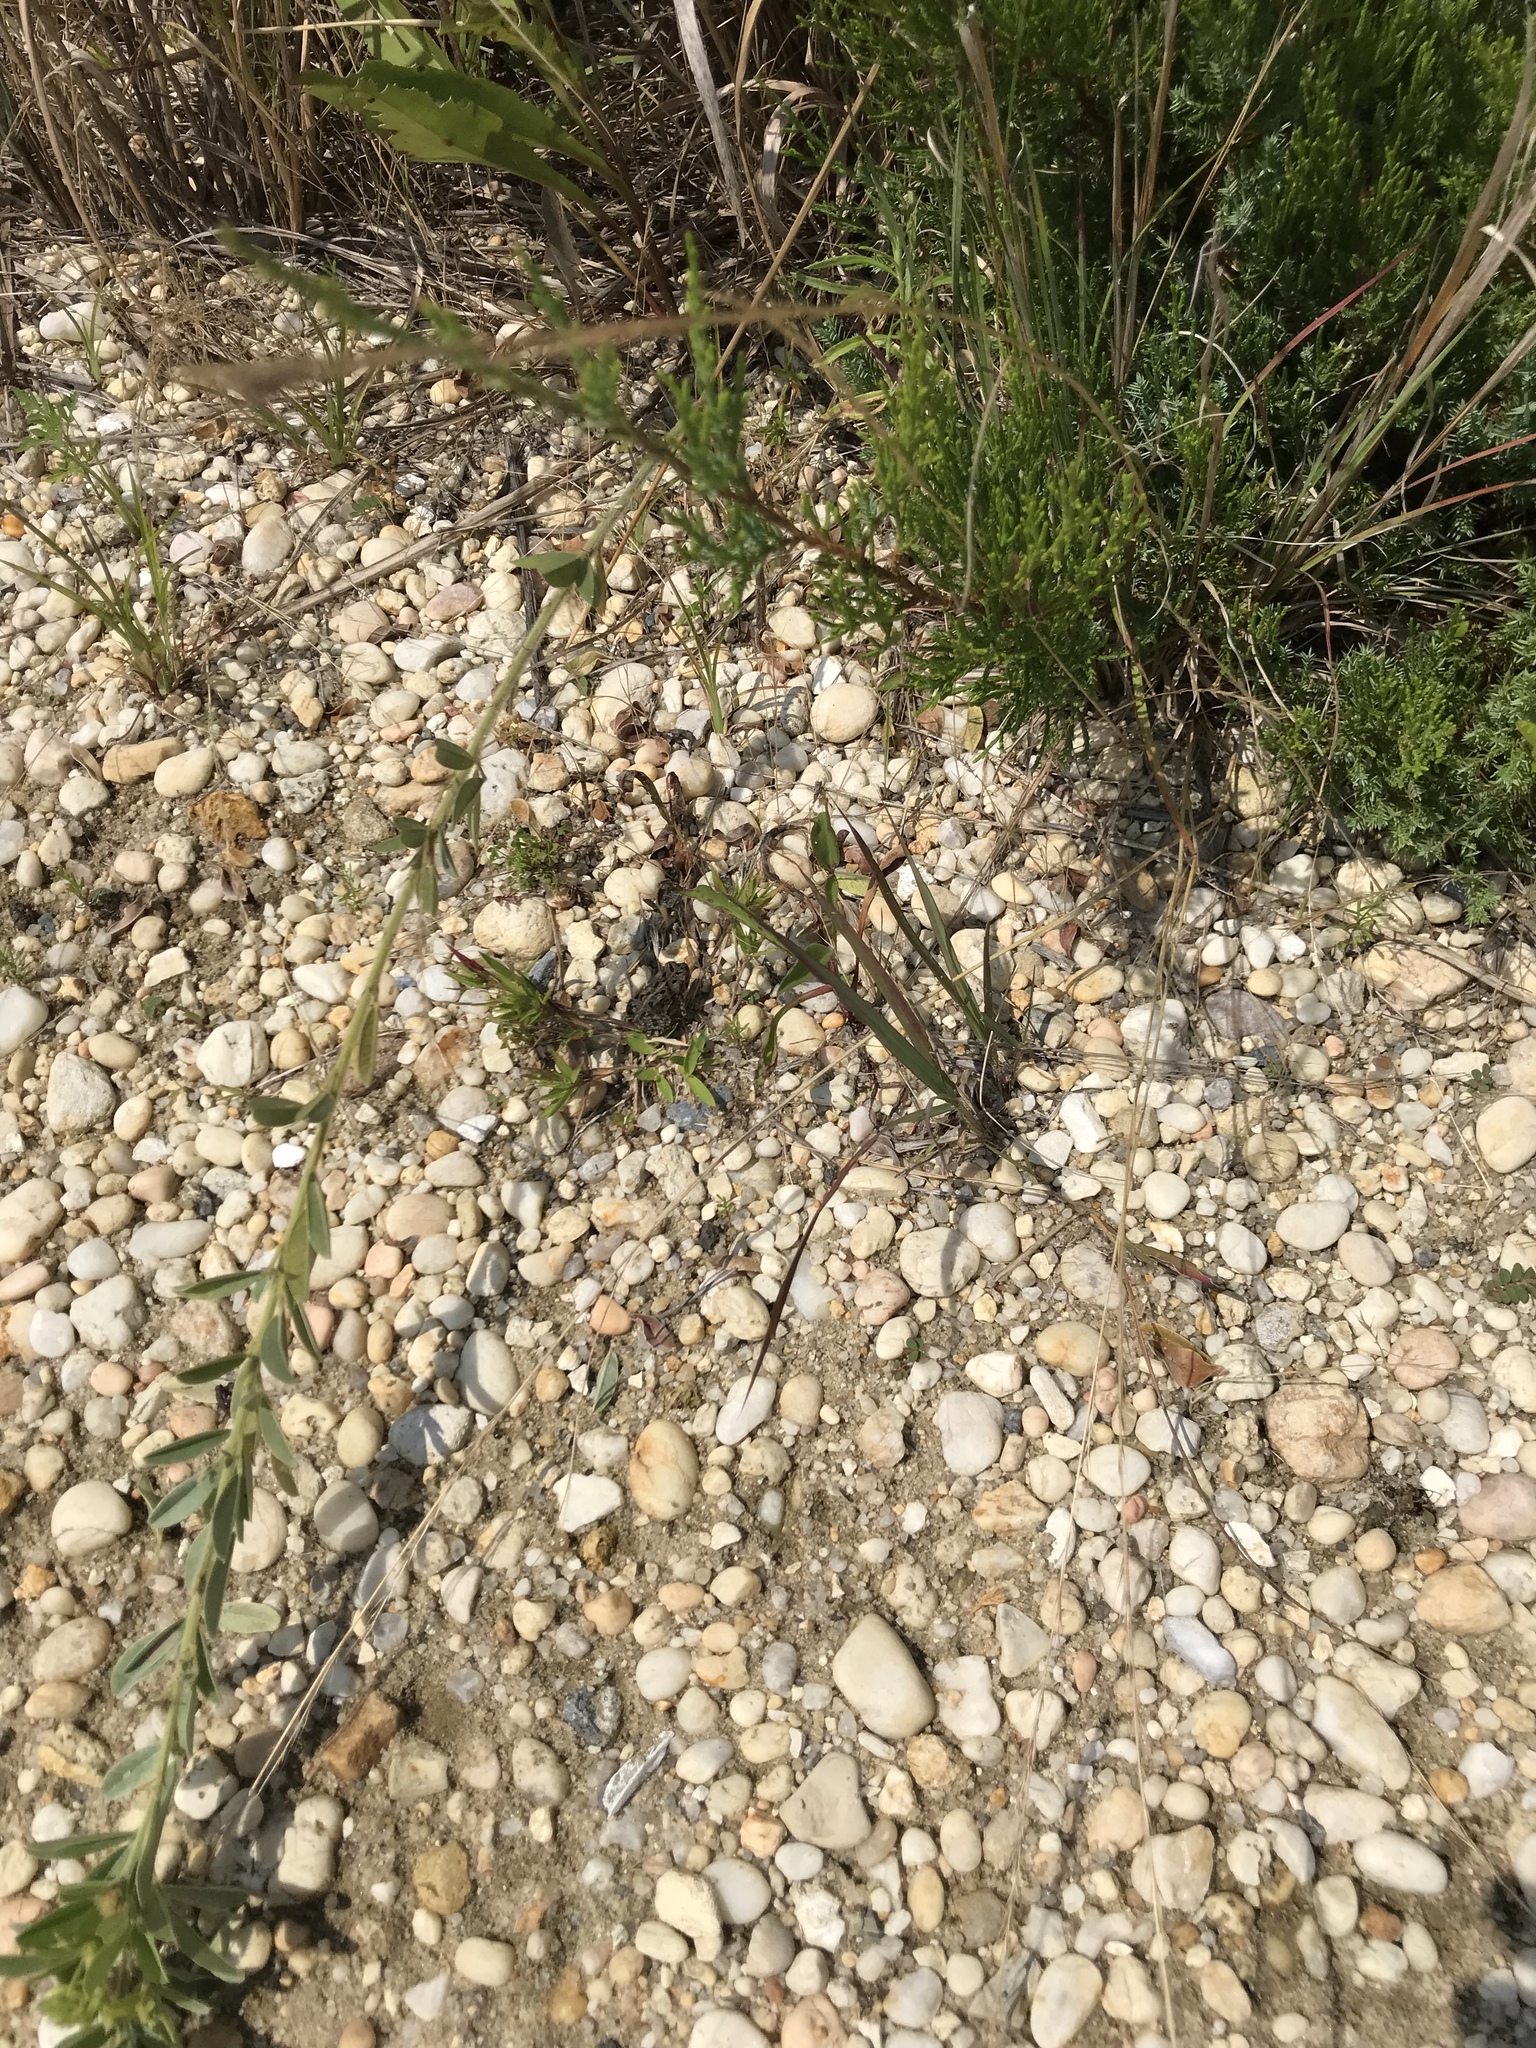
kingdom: Animalia
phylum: Chordata
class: Amphibia
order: Anura
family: Bufonidae
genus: Anaxyrus
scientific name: Anaxyrus fowleri
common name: Fowler's toad
